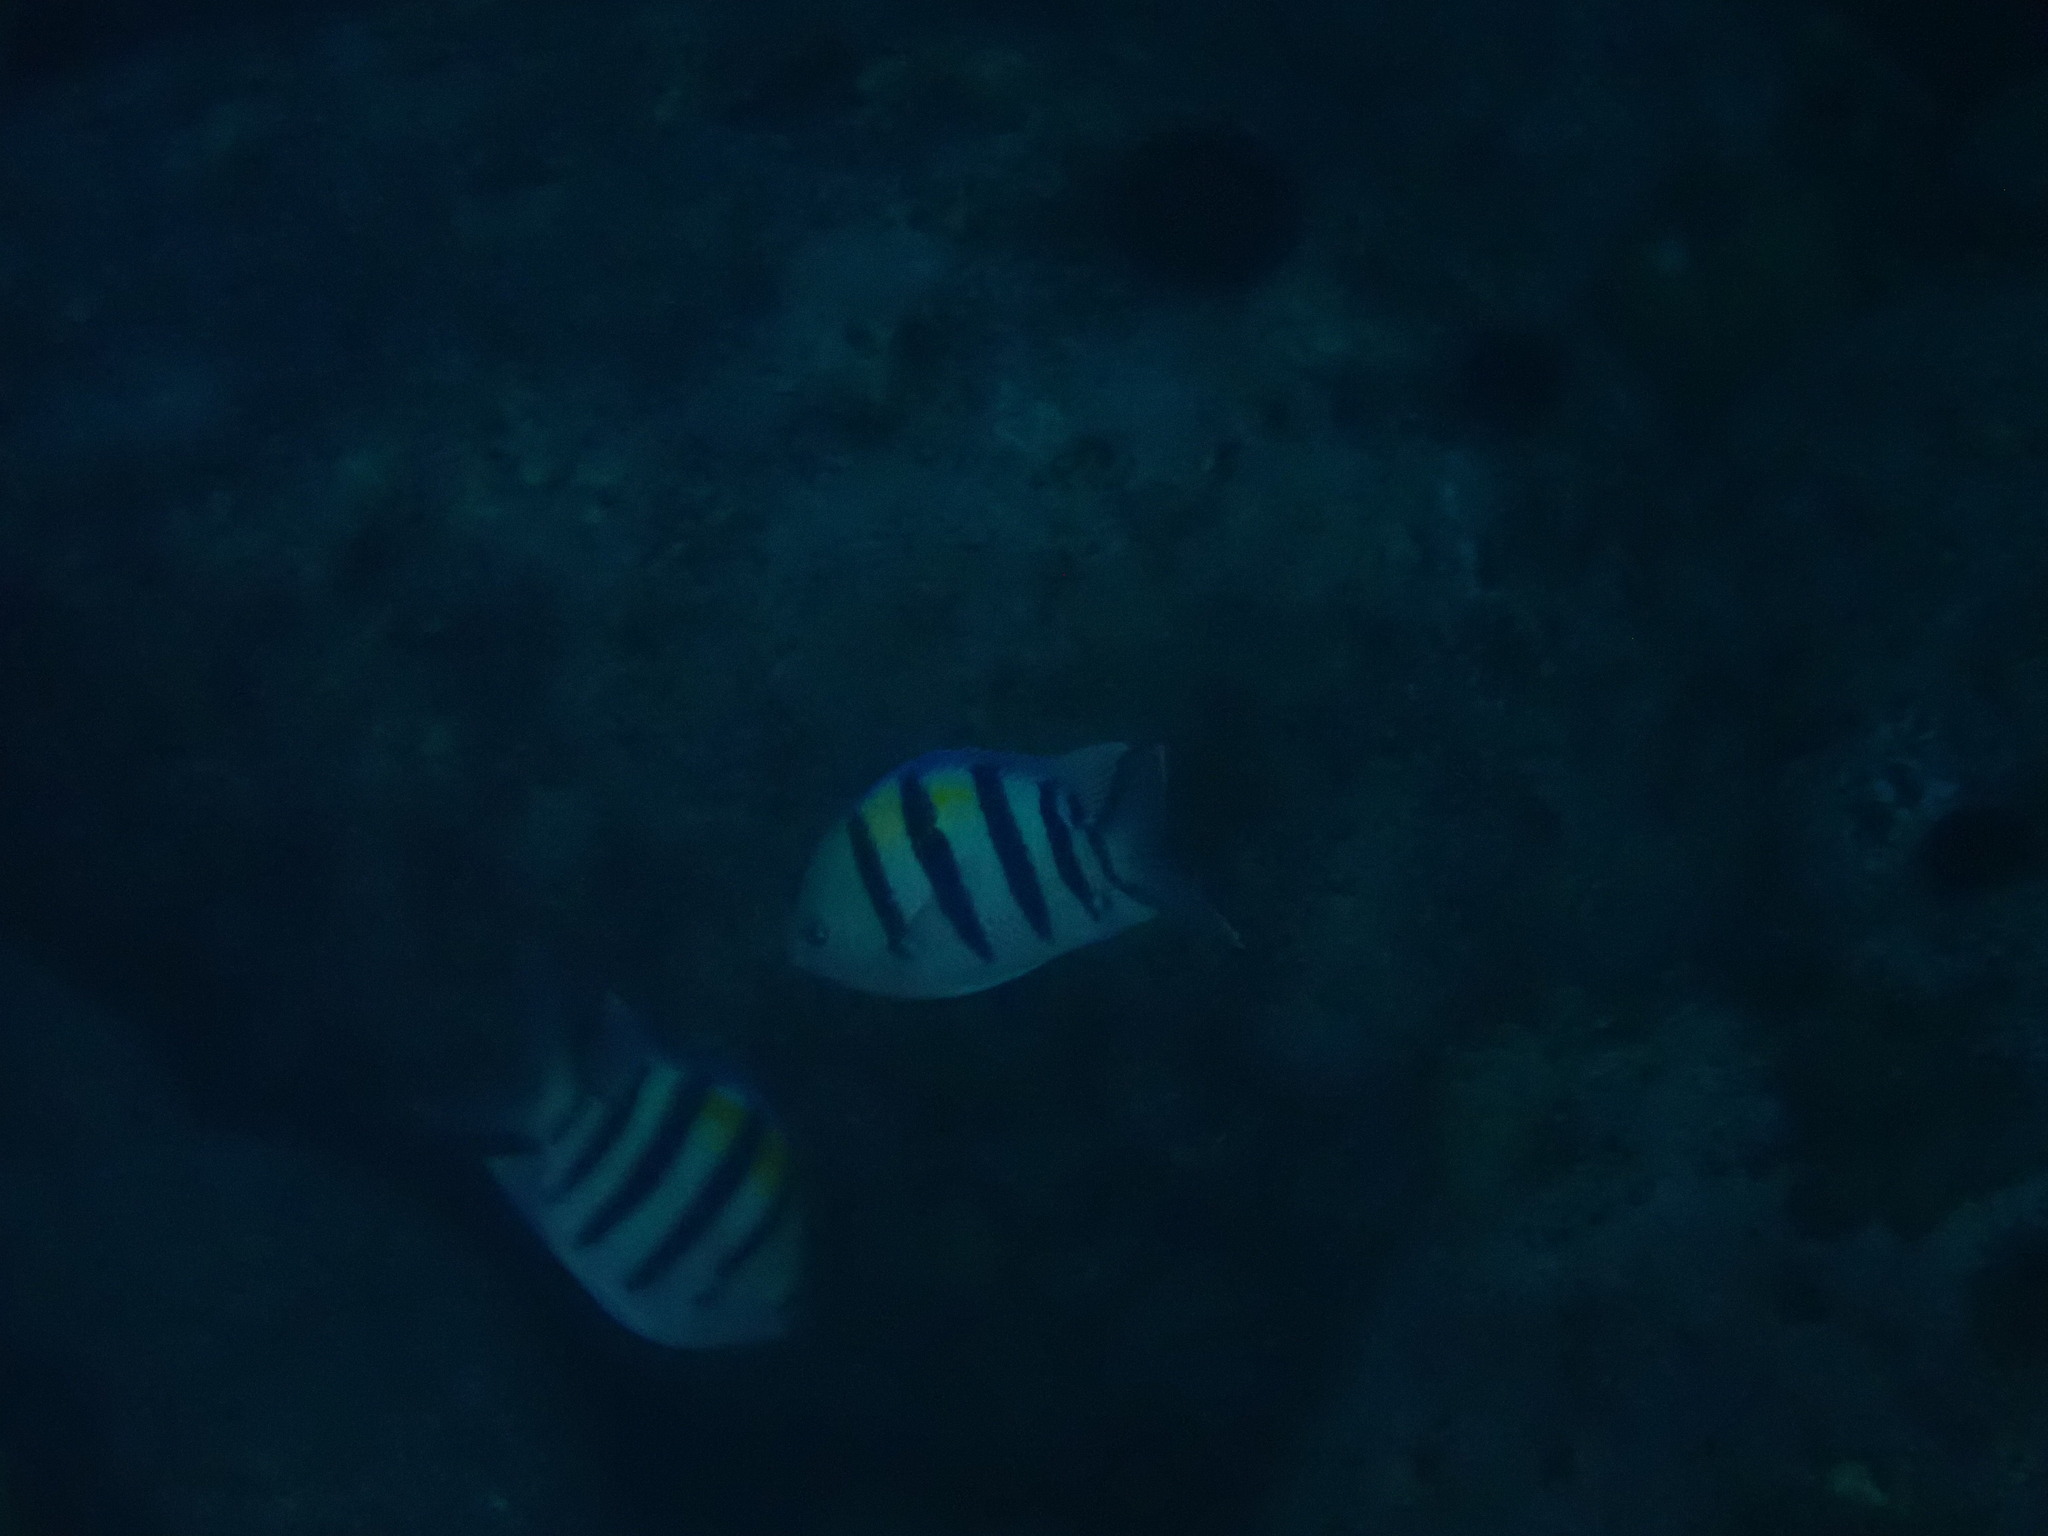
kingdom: Animalia
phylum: Chordata
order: Perciformes
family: Pomacentridae
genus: Abudefduf
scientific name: Abudefduf vaigiensis
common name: Indo-pacific sergeant
